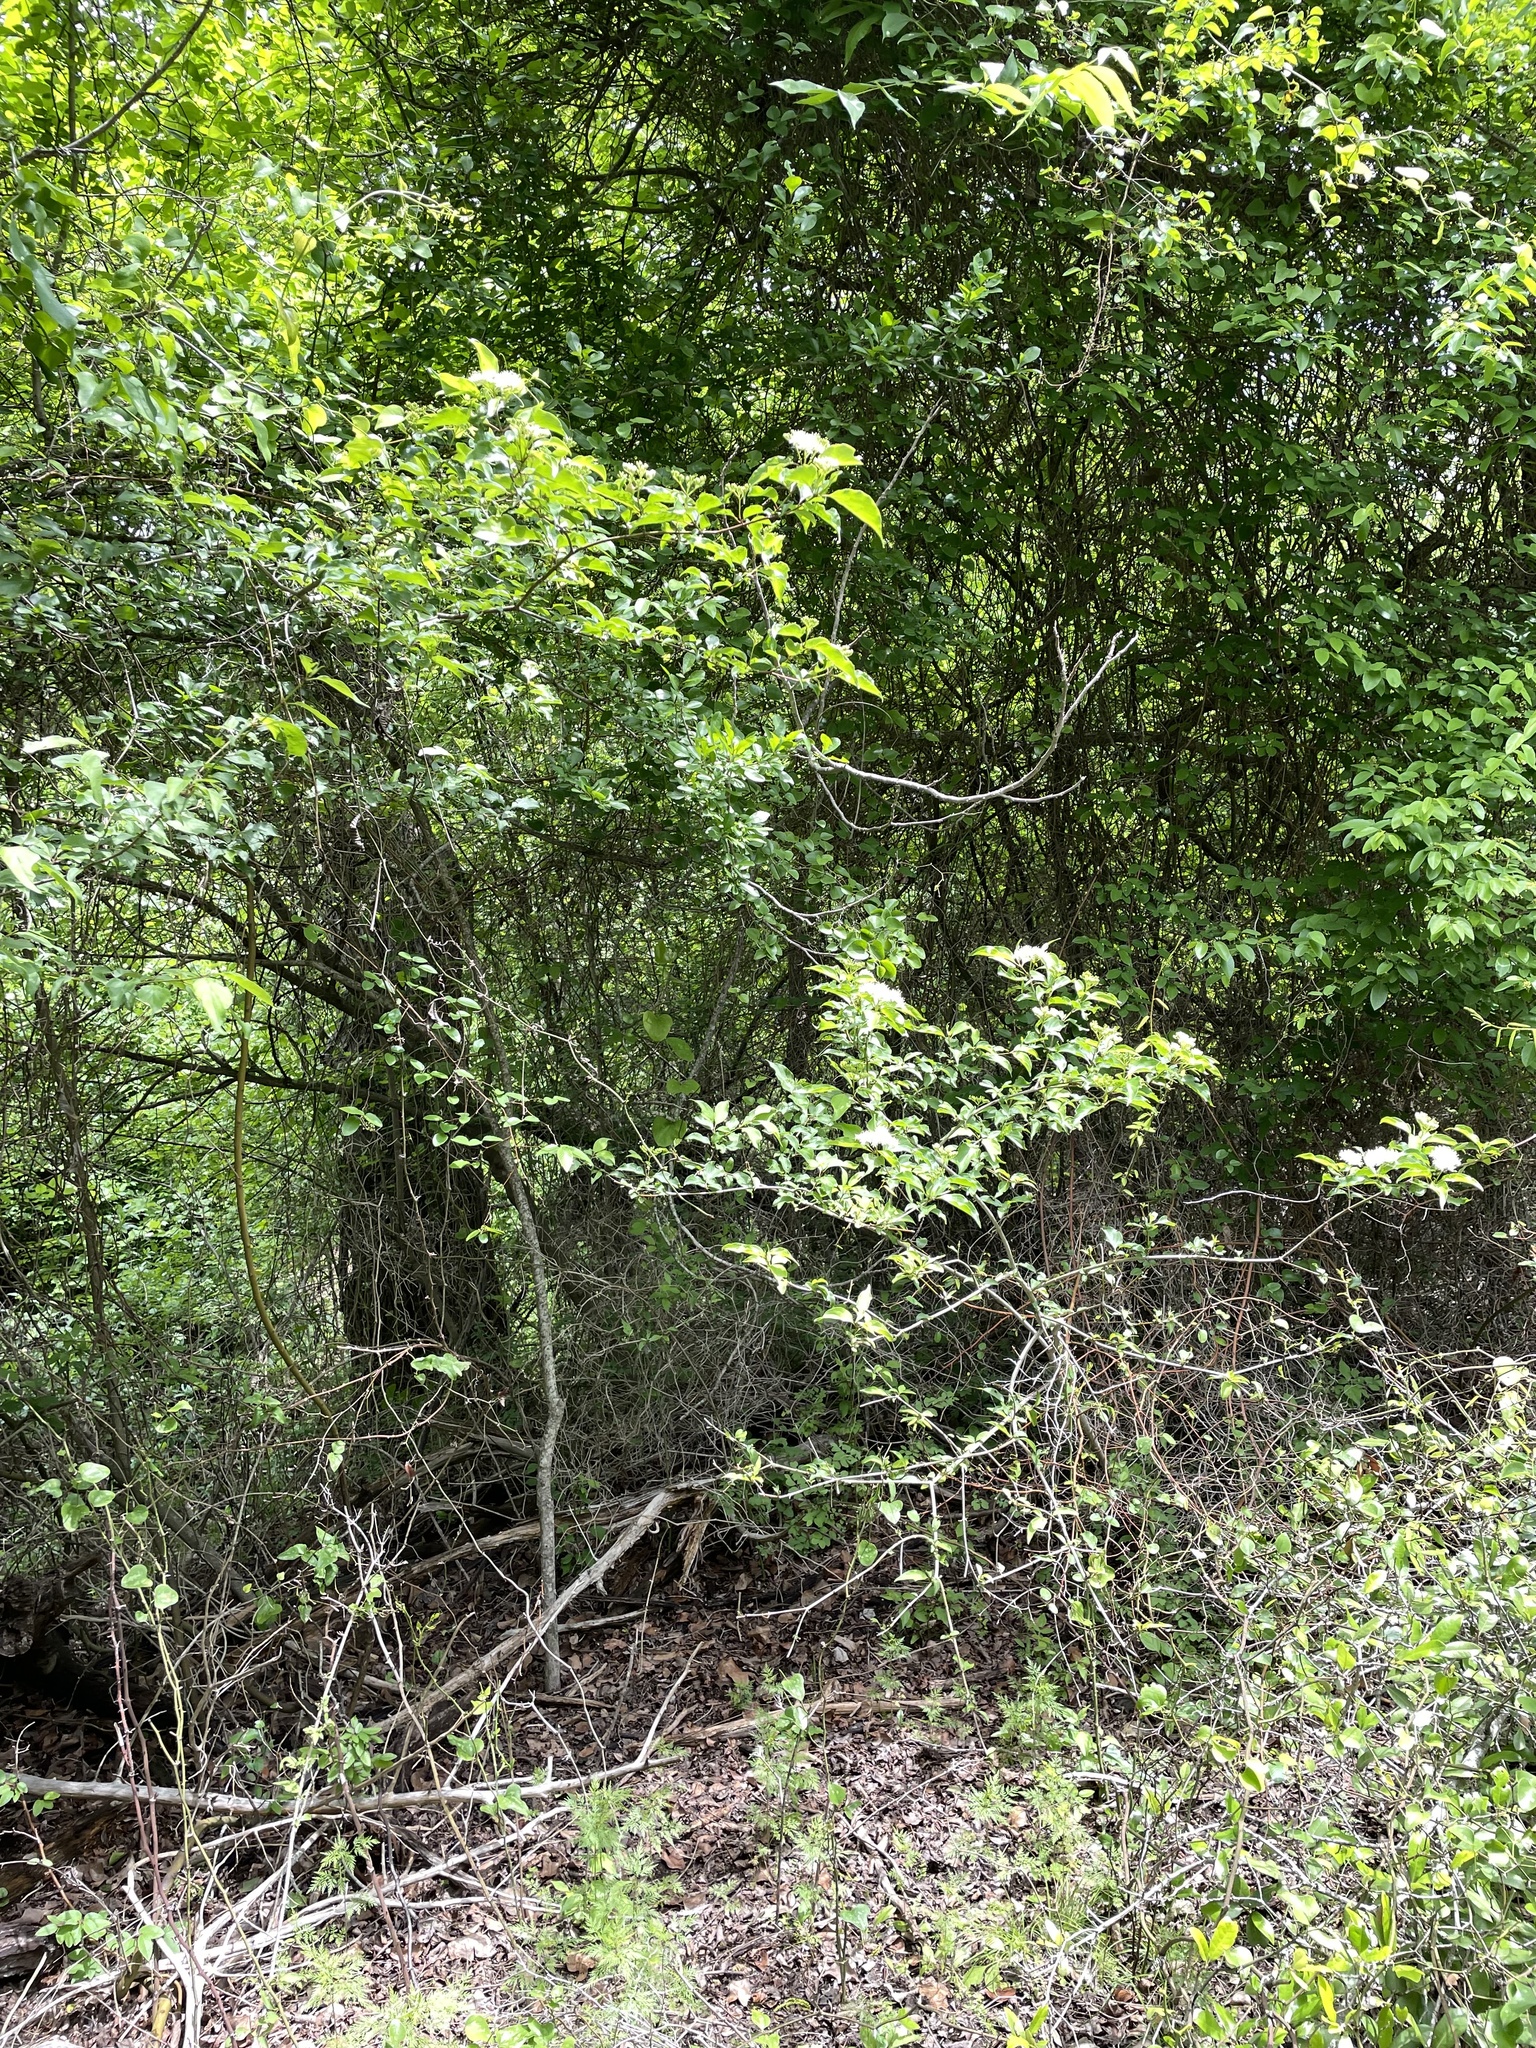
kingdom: Plantae
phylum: Tracheophyta
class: Magnoliopsida
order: Cornales
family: Cornaceae
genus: Cornus
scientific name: Cornus drummondii
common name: Rough-leaf dogwood
